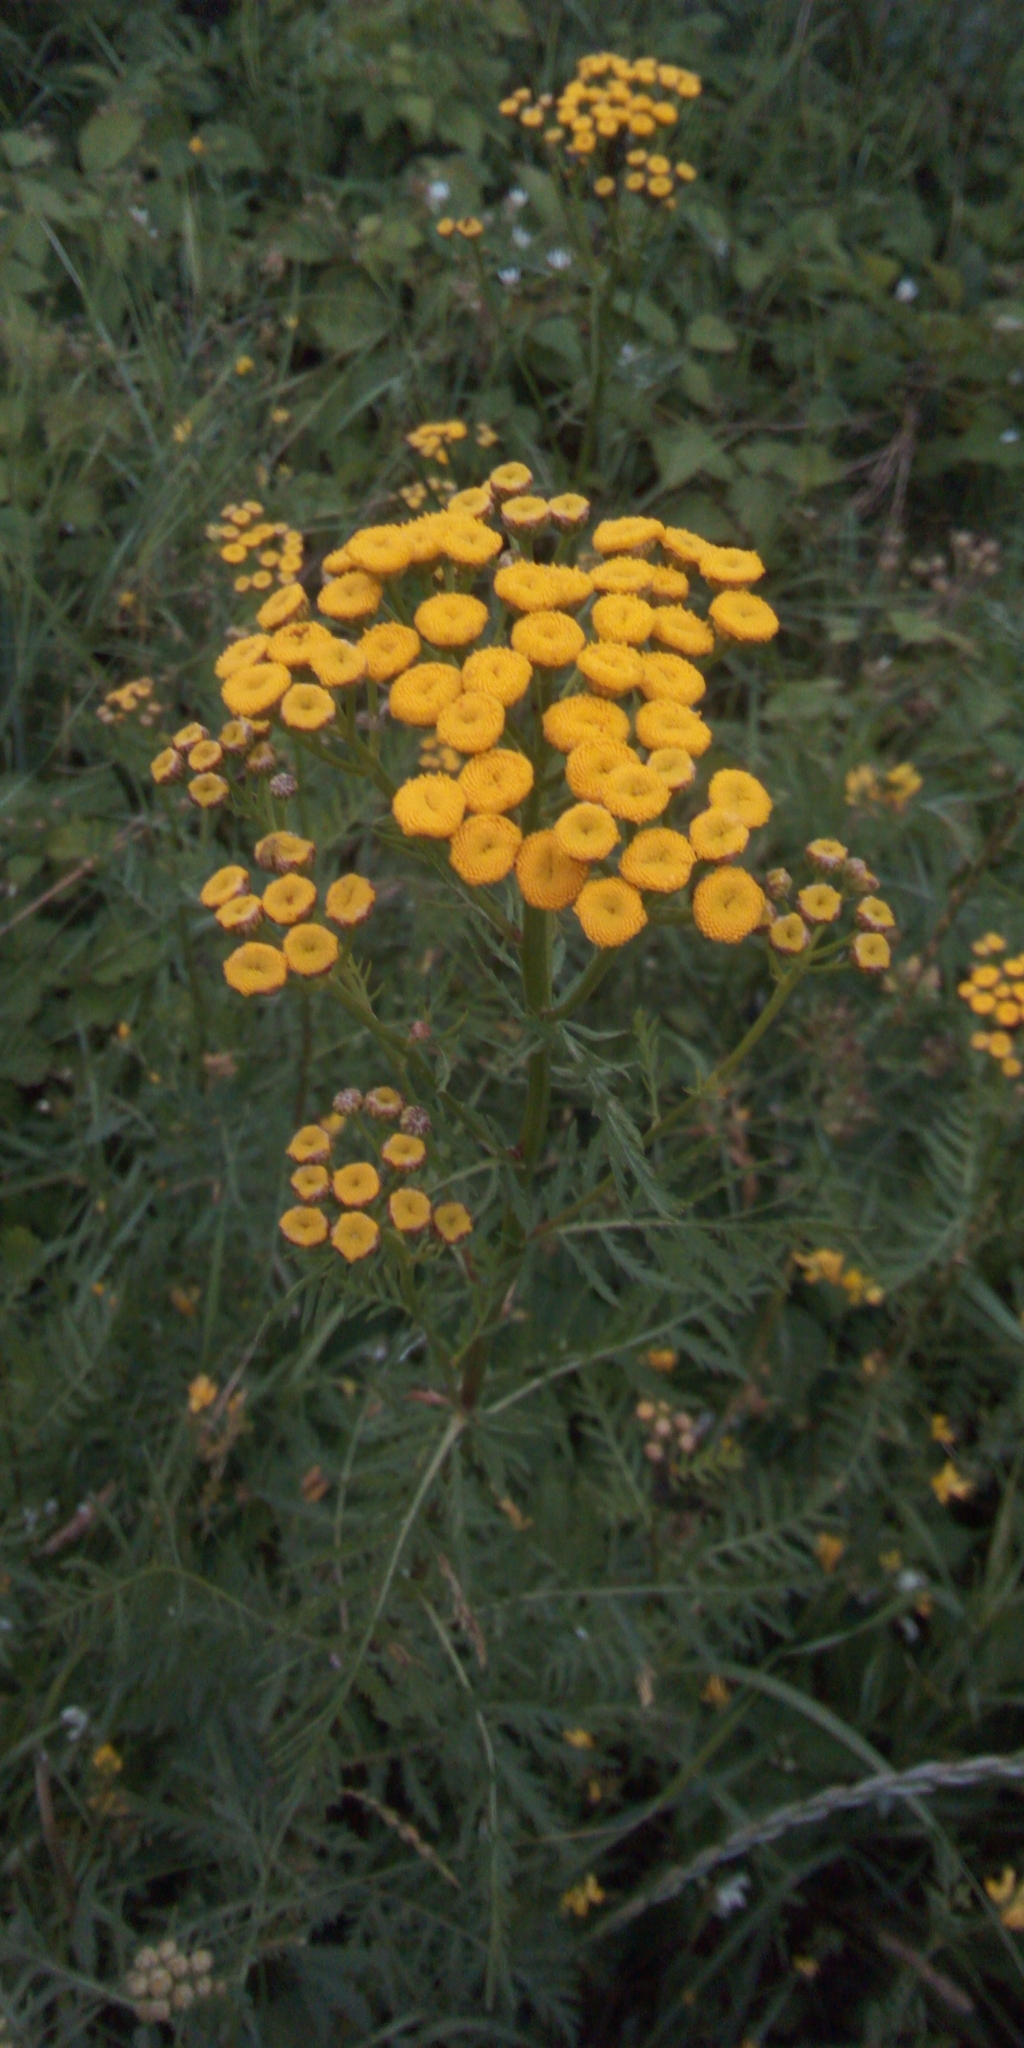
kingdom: Plantae
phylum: Tracheophyta
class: Magnoliopsida
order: Asterales
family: Asteraceae
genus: Tanacetum
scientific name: Tanacetum vulgare
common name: Common tansy
